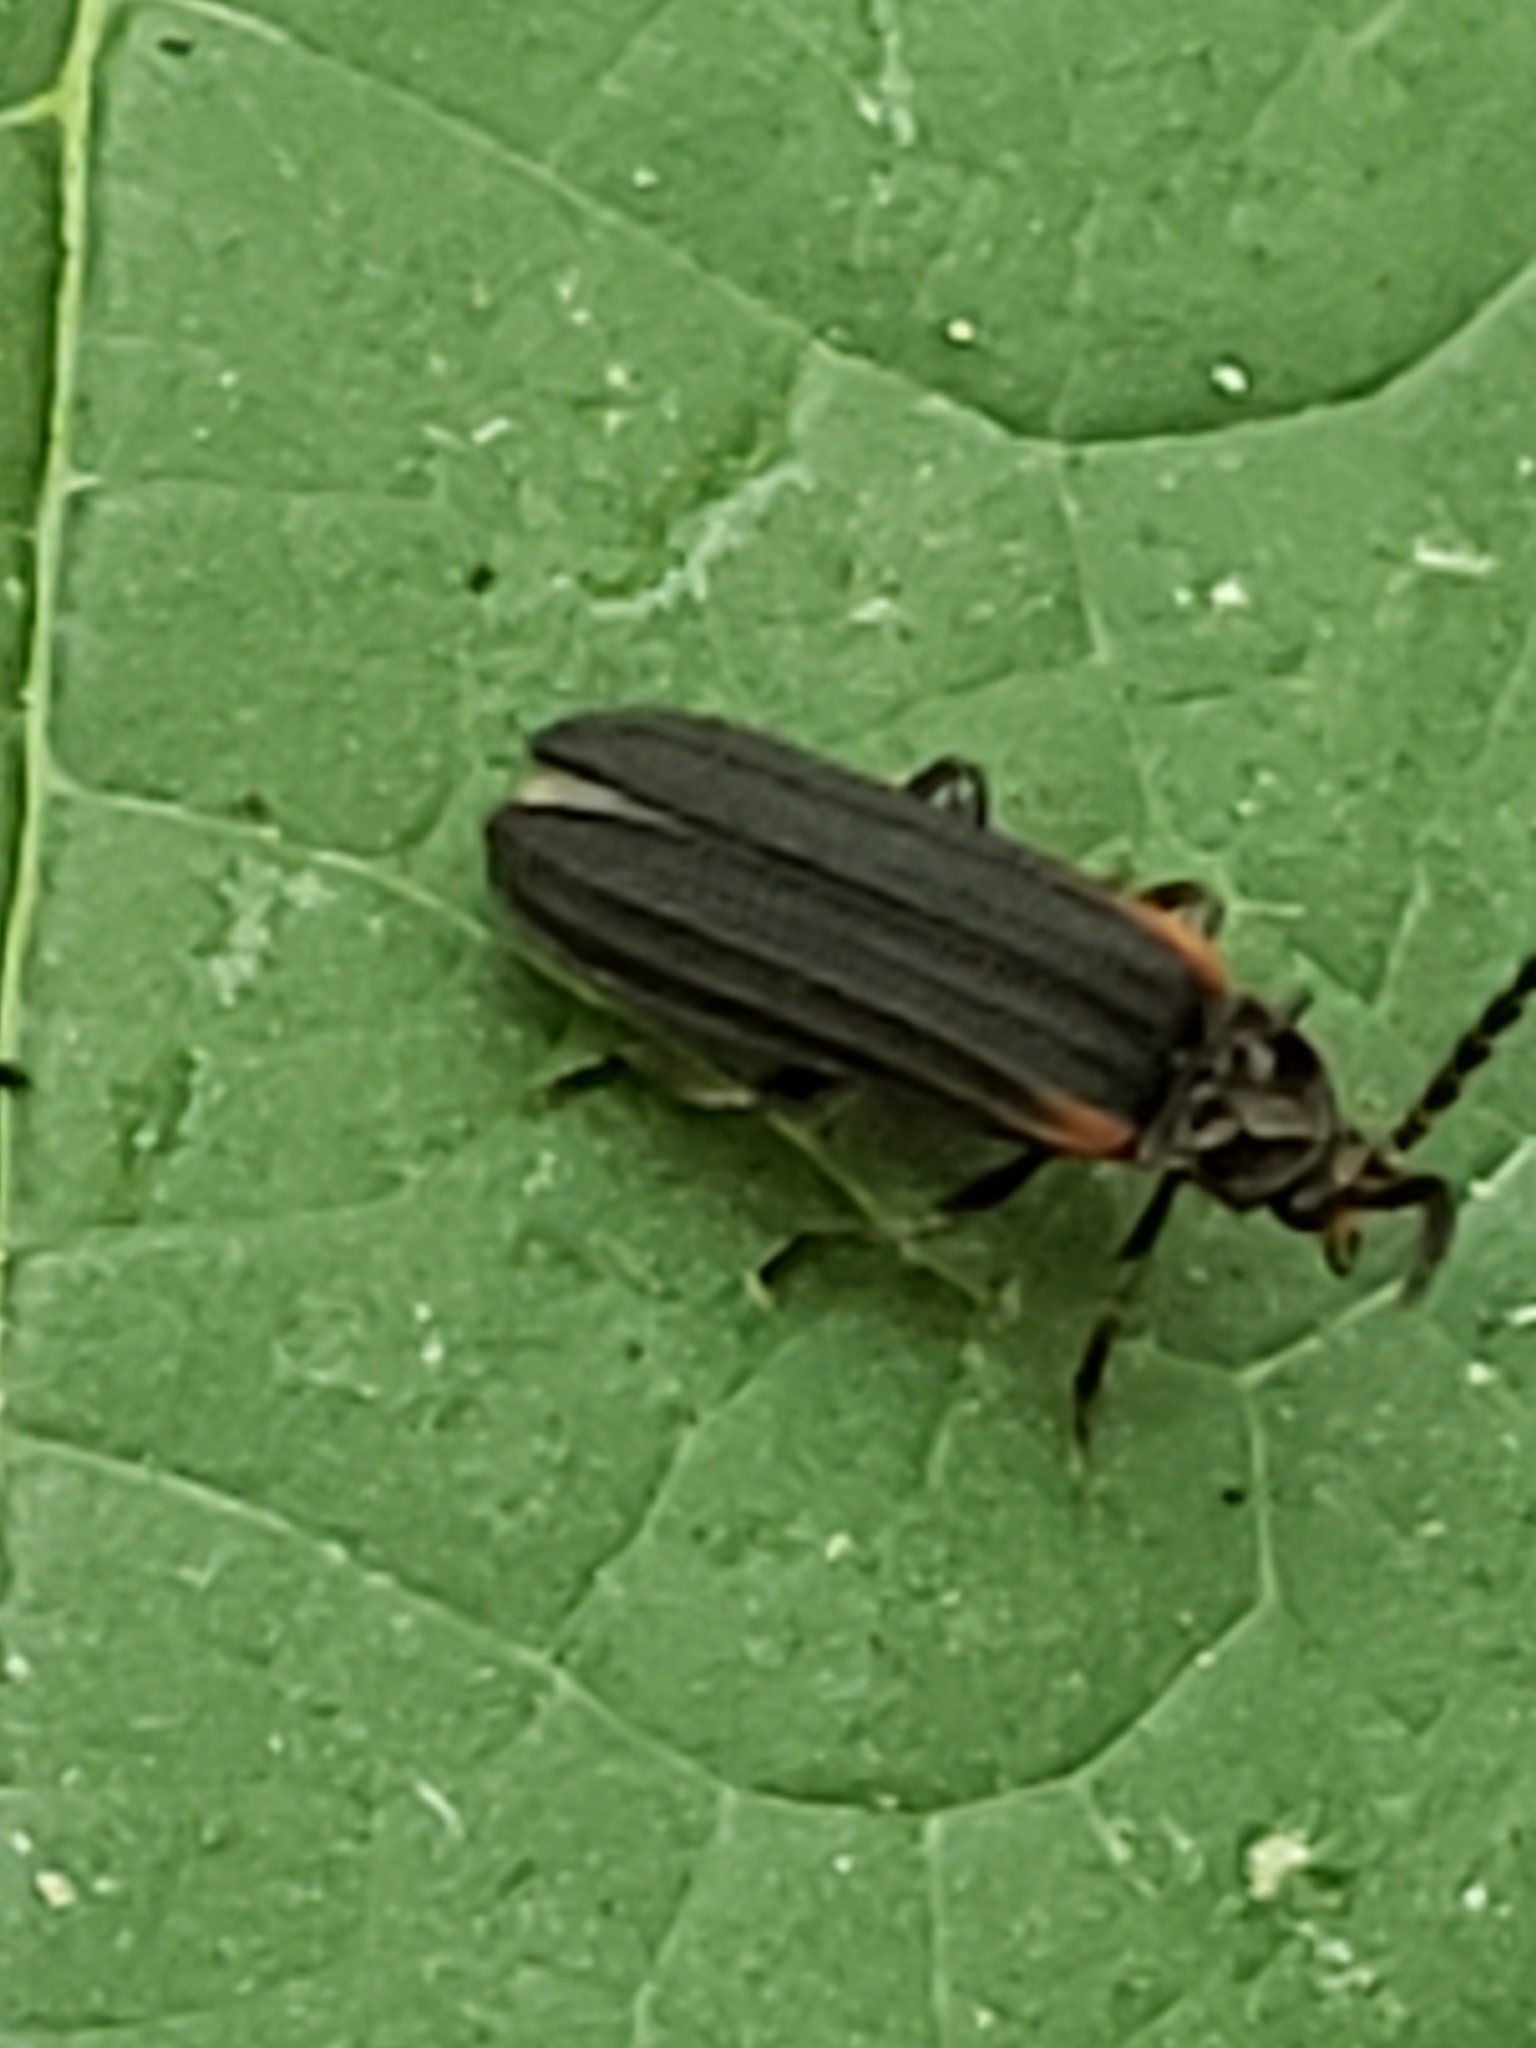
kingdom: Animalia
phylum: Arthropoda
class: Insecta
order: Coleoptera
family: Lycidae
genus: Greenarus
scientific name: Greenarus thoracicus
